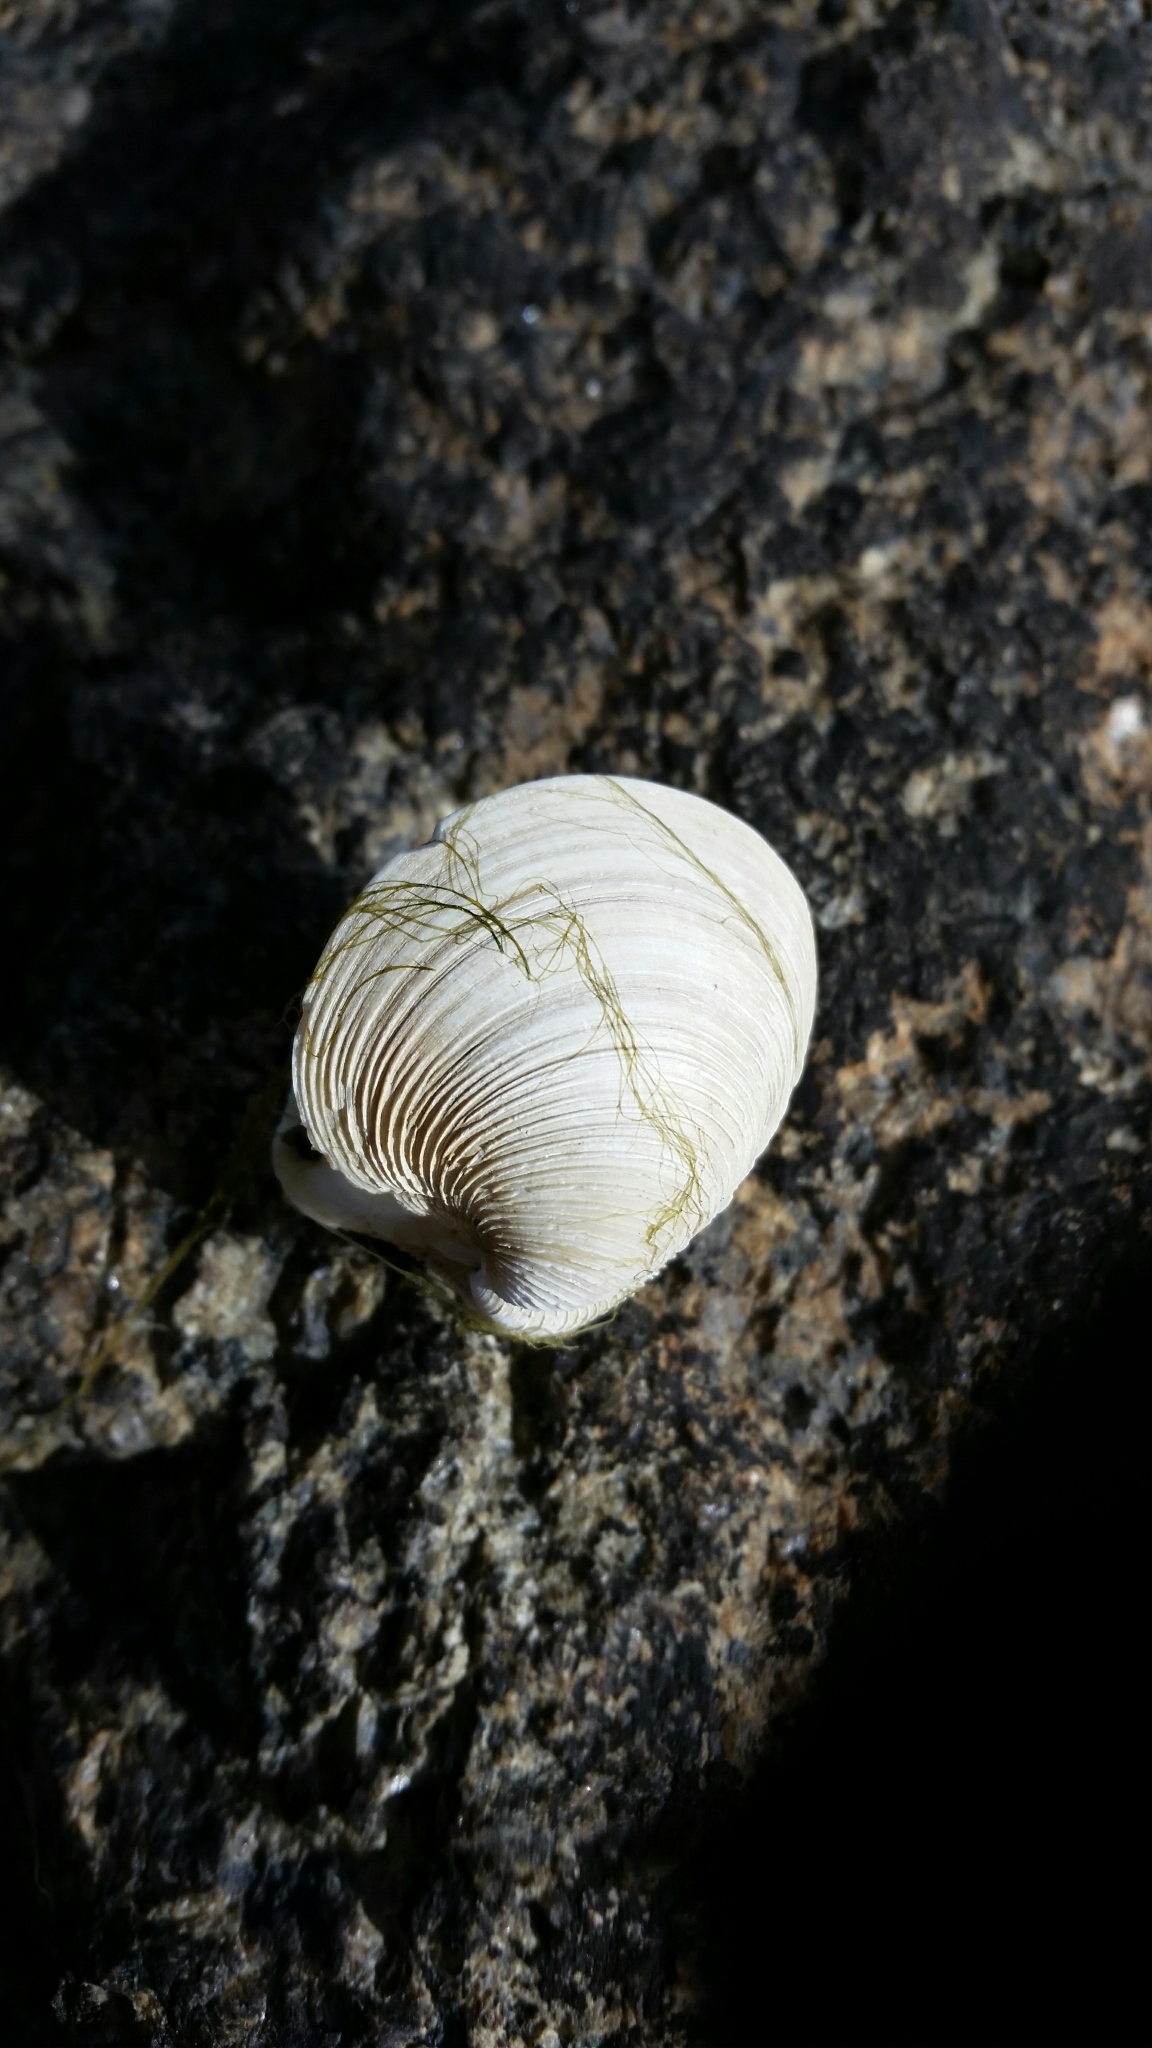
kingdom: Animalia
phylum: Mollusca
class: Bivalvia
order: Venerida
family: Veneridae
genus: Mercenaria
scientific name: Mercenaria mercenaria
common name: American hard-shelled clam
